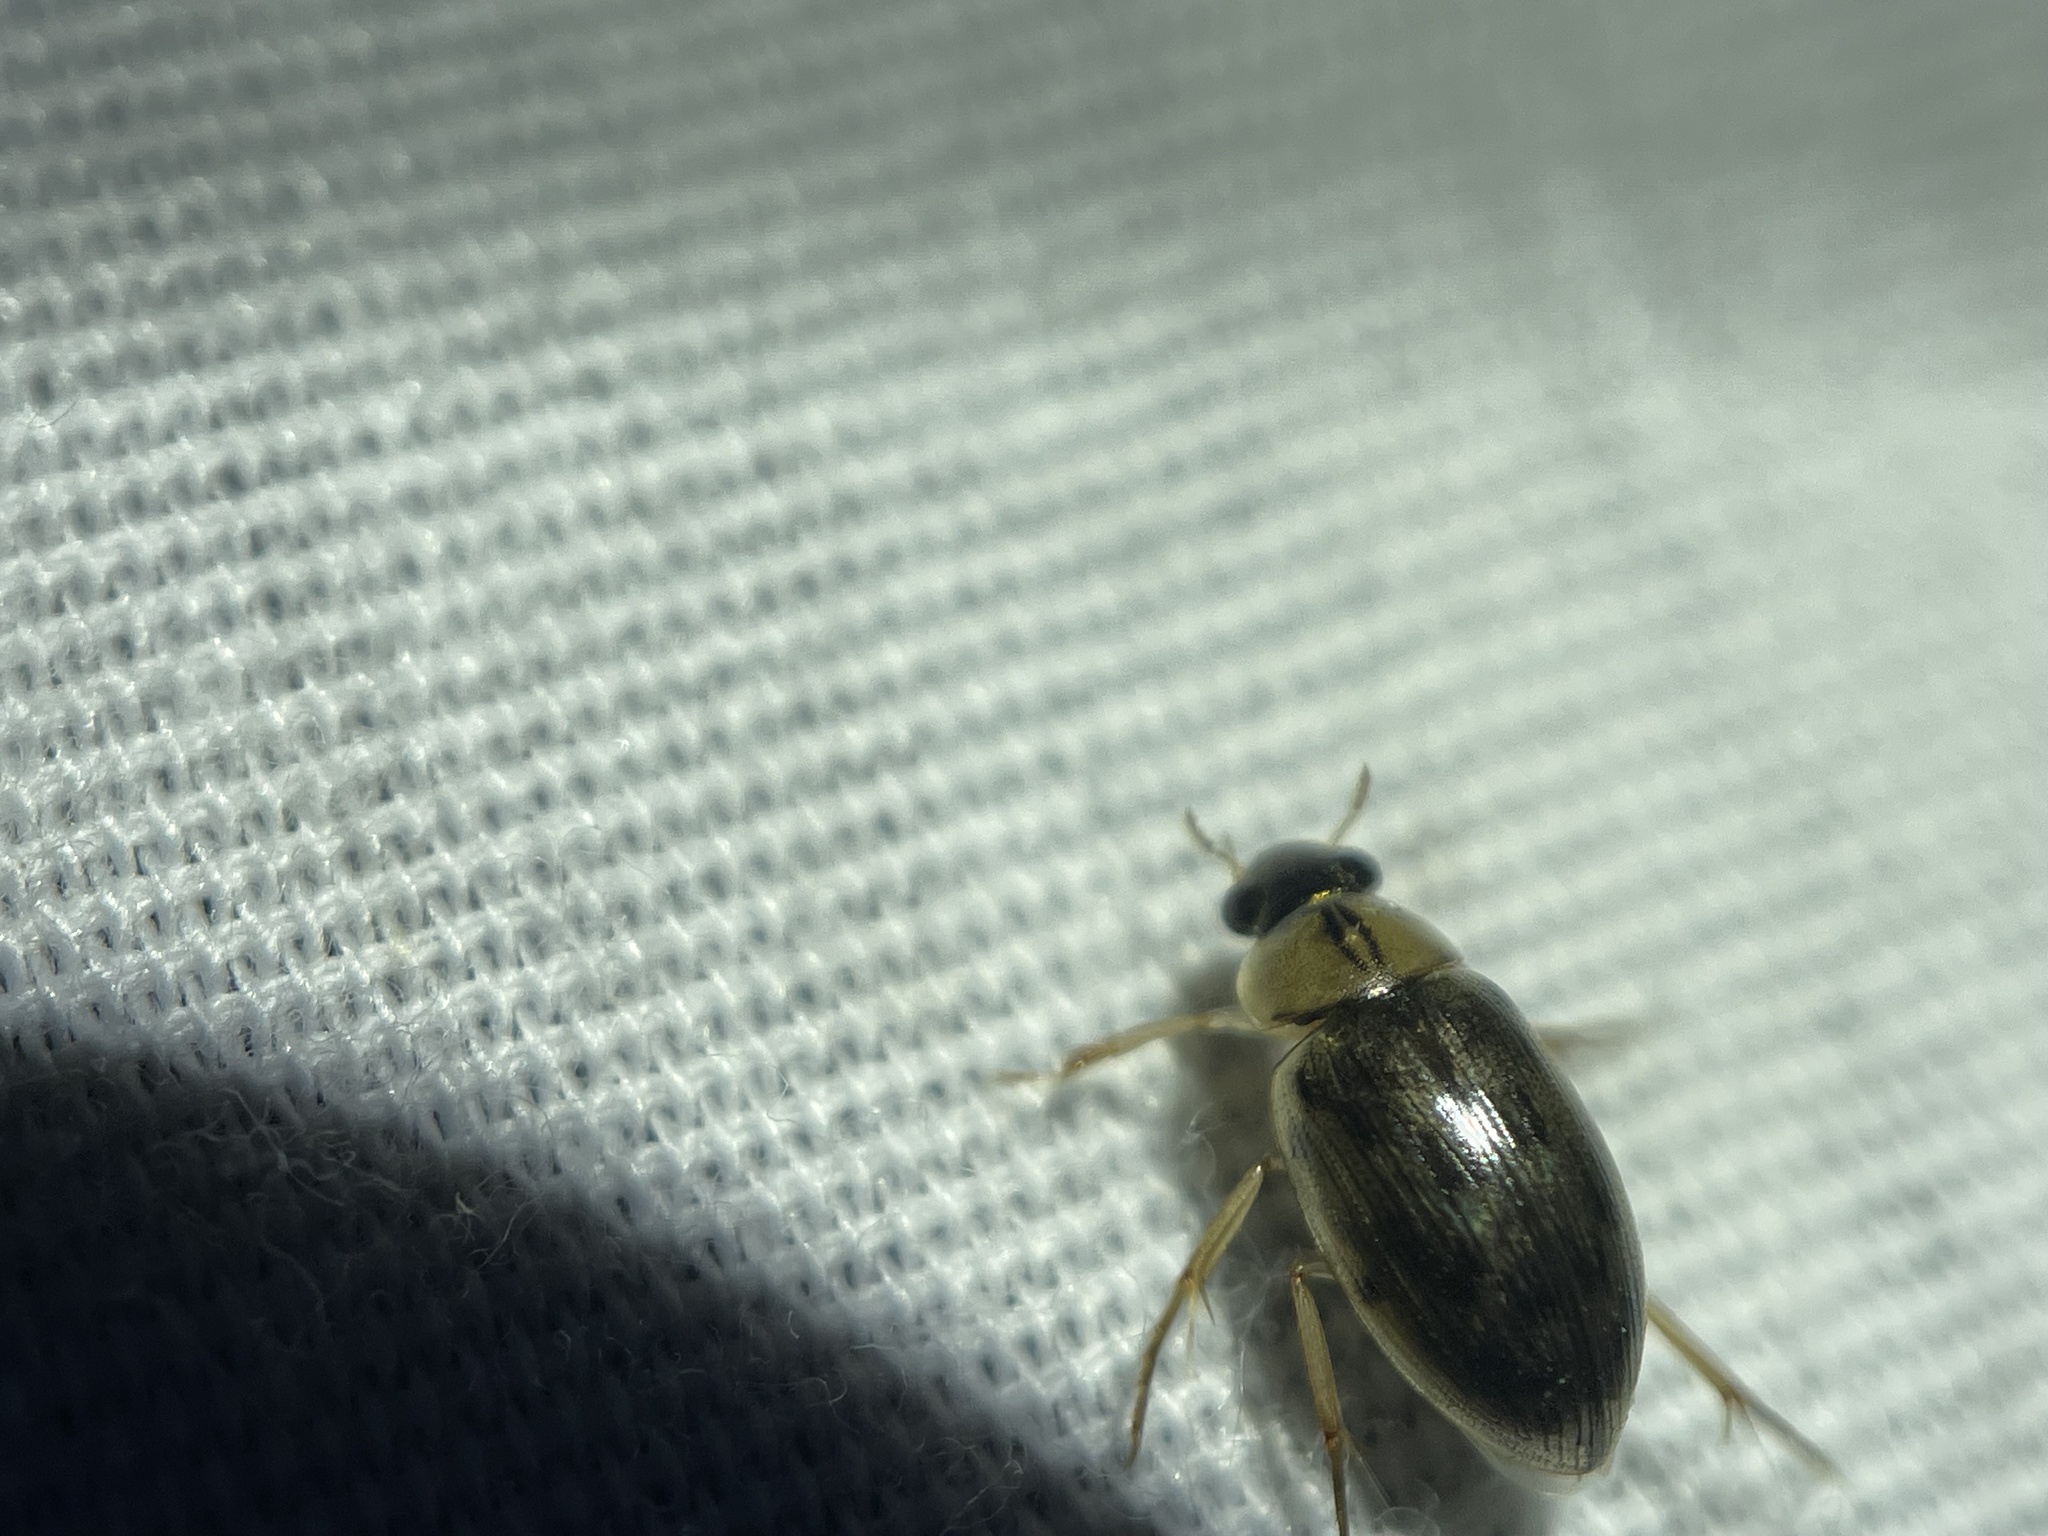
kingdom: Animalia
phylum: Arthropoda
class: Insecta
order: Coleoptera
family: Hydrophilidae
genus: Berosus
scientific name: Berosus
